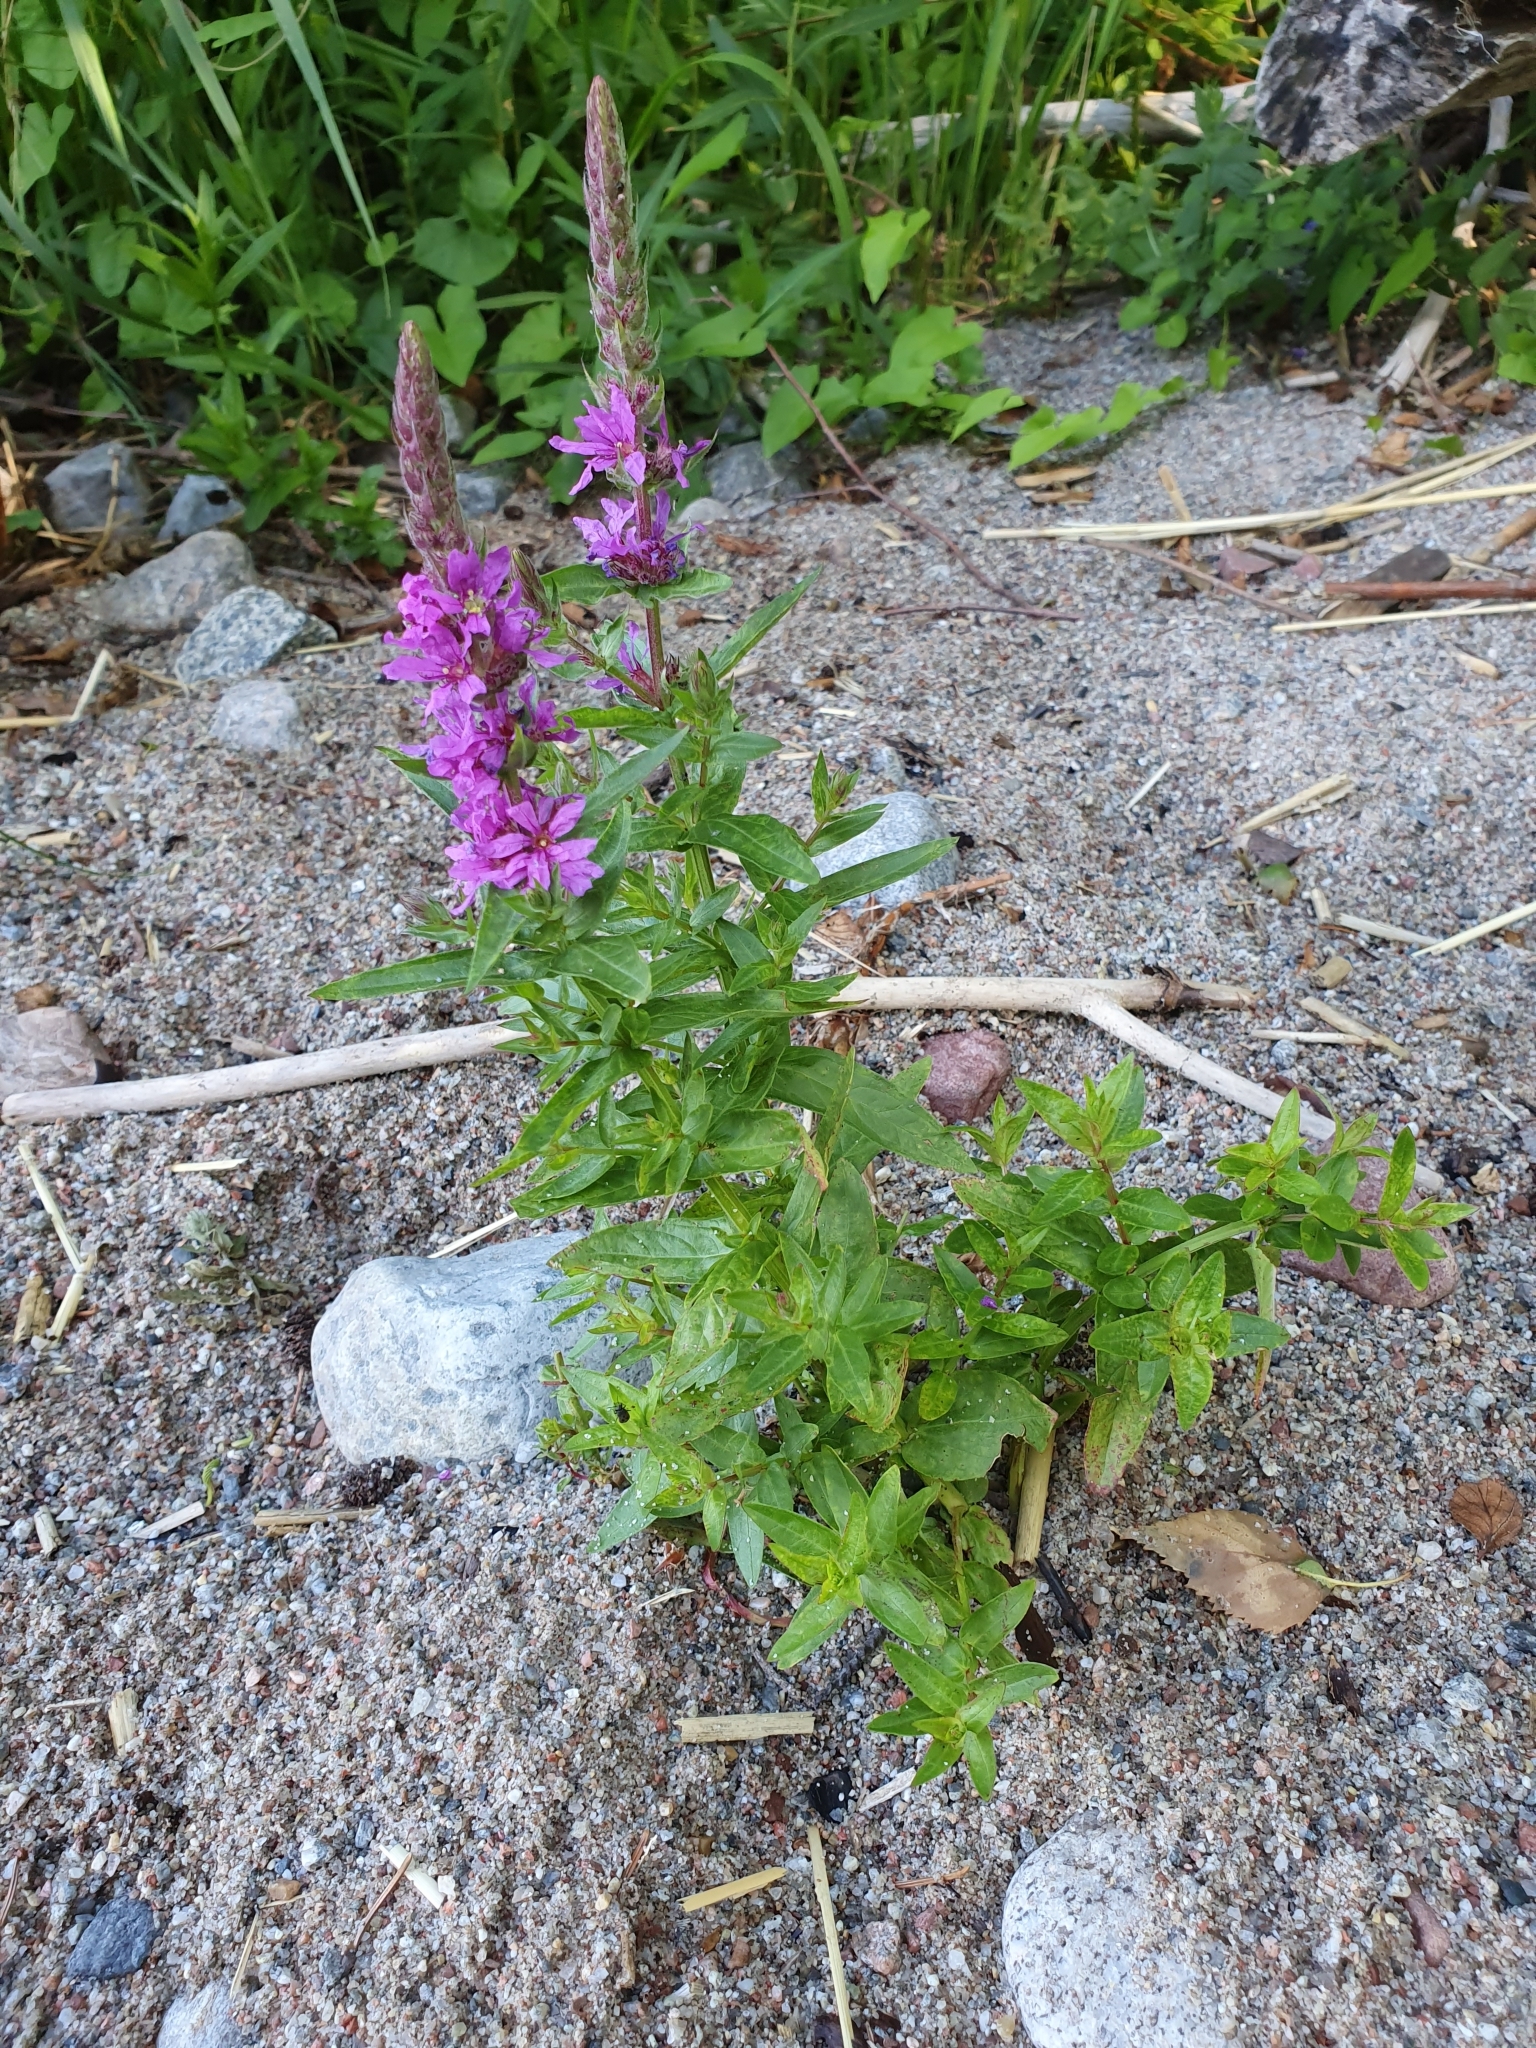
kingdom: Plantae
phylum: Tracheophyta
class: Magnoliopsida
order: Myrtales
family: Lythraceae
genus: Lythrum
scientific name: Lythrum salicaria
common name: Purple loosestrife
